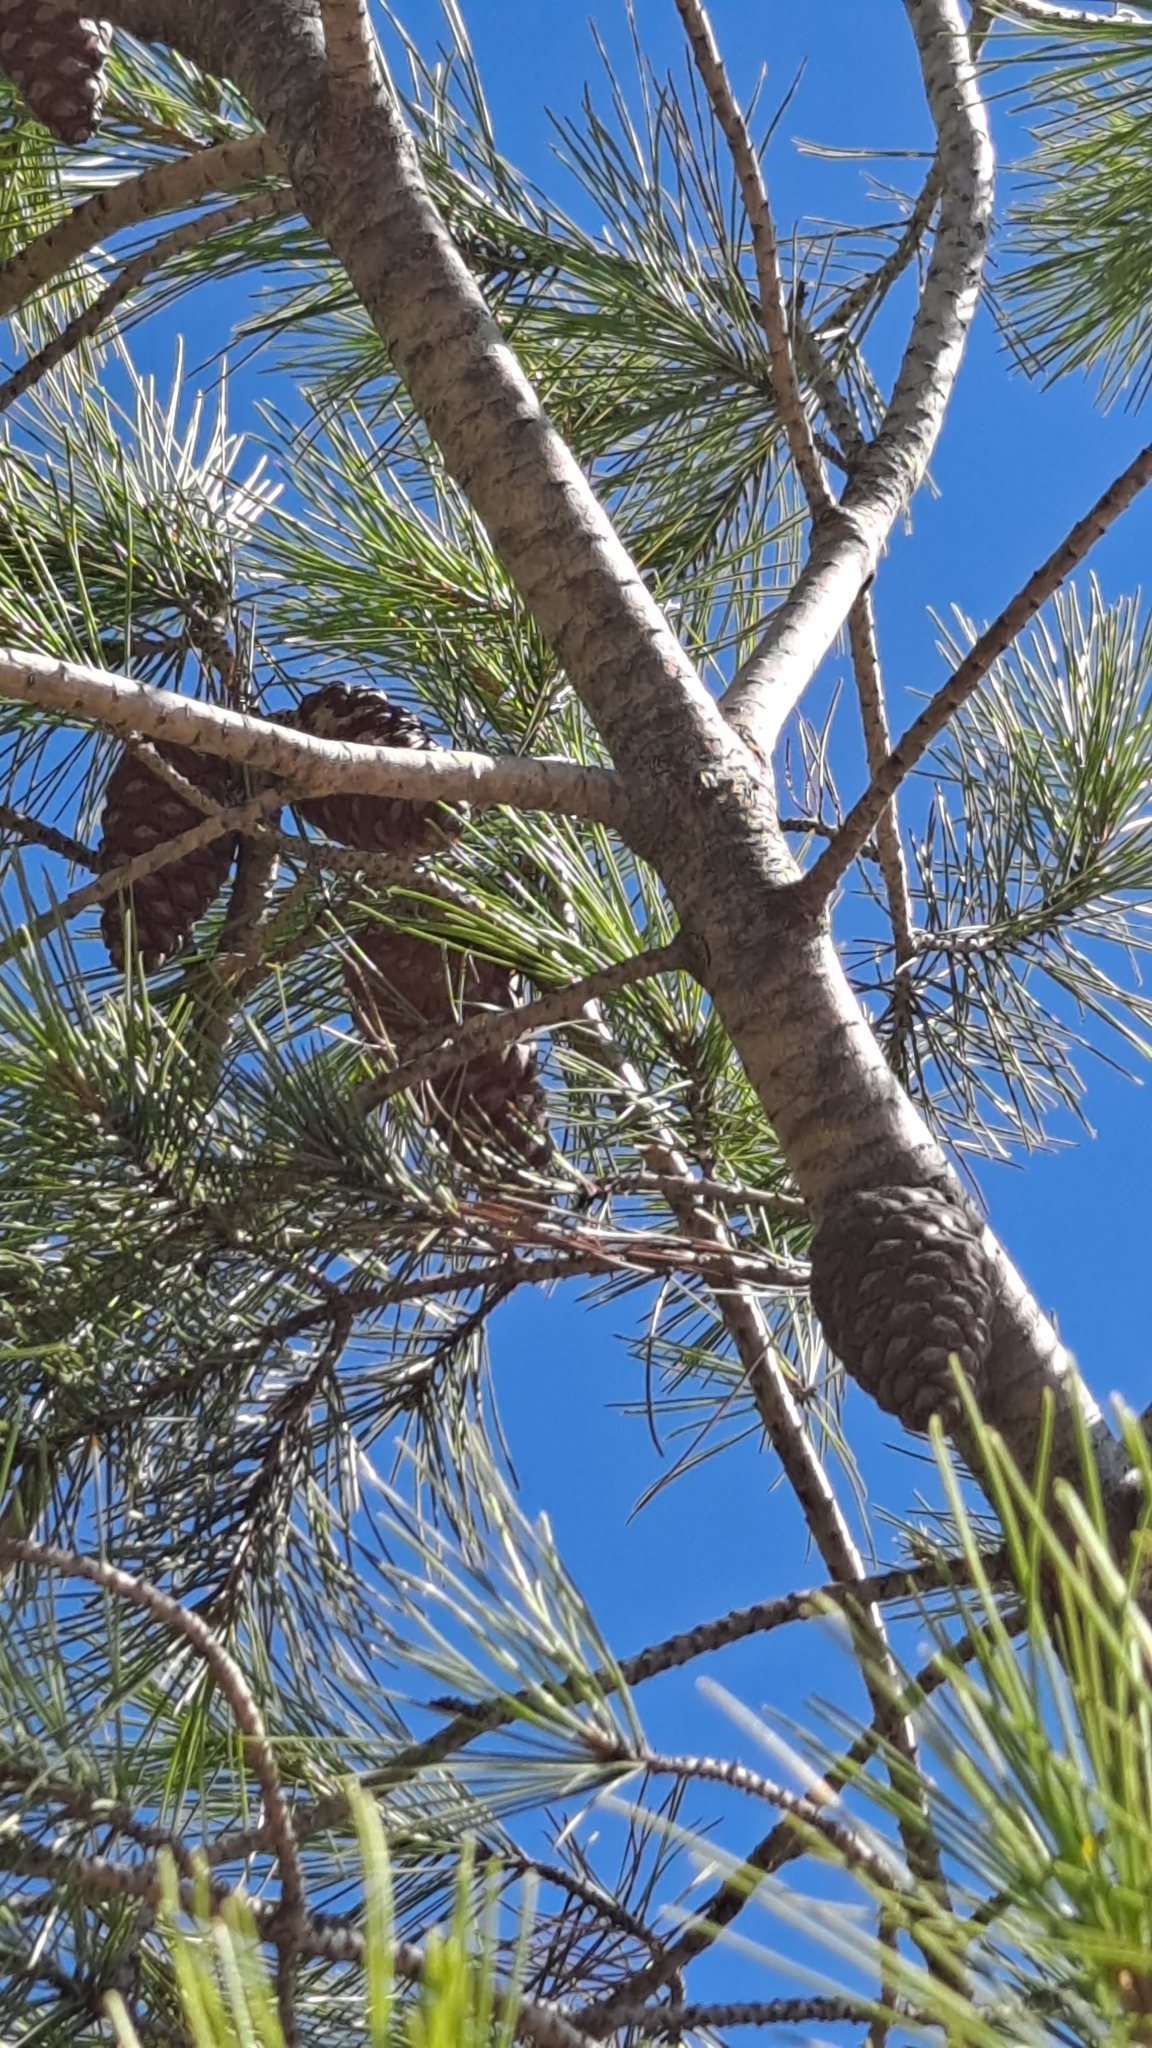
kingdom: Plantae
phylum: Tracheophyta
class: Pinopsida
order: Pinales
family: Pinaceae
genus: Pinus
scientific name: Pinus halepensis
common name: Aleppo pine
